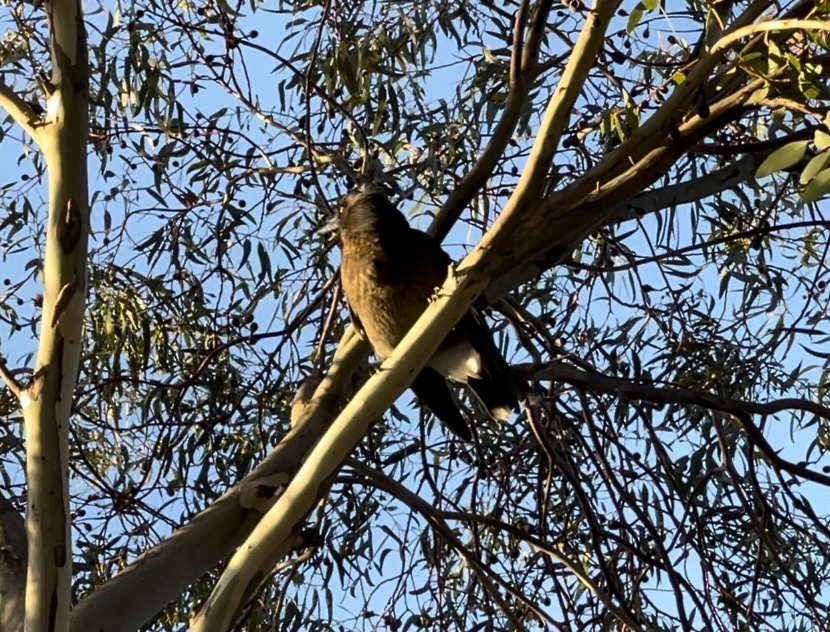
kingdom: Animalia
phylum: Chordata
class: Aves
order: Passeriformes
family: Cracticidae
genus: Strepera
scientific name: Strepera graculina
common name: Pied currawong
